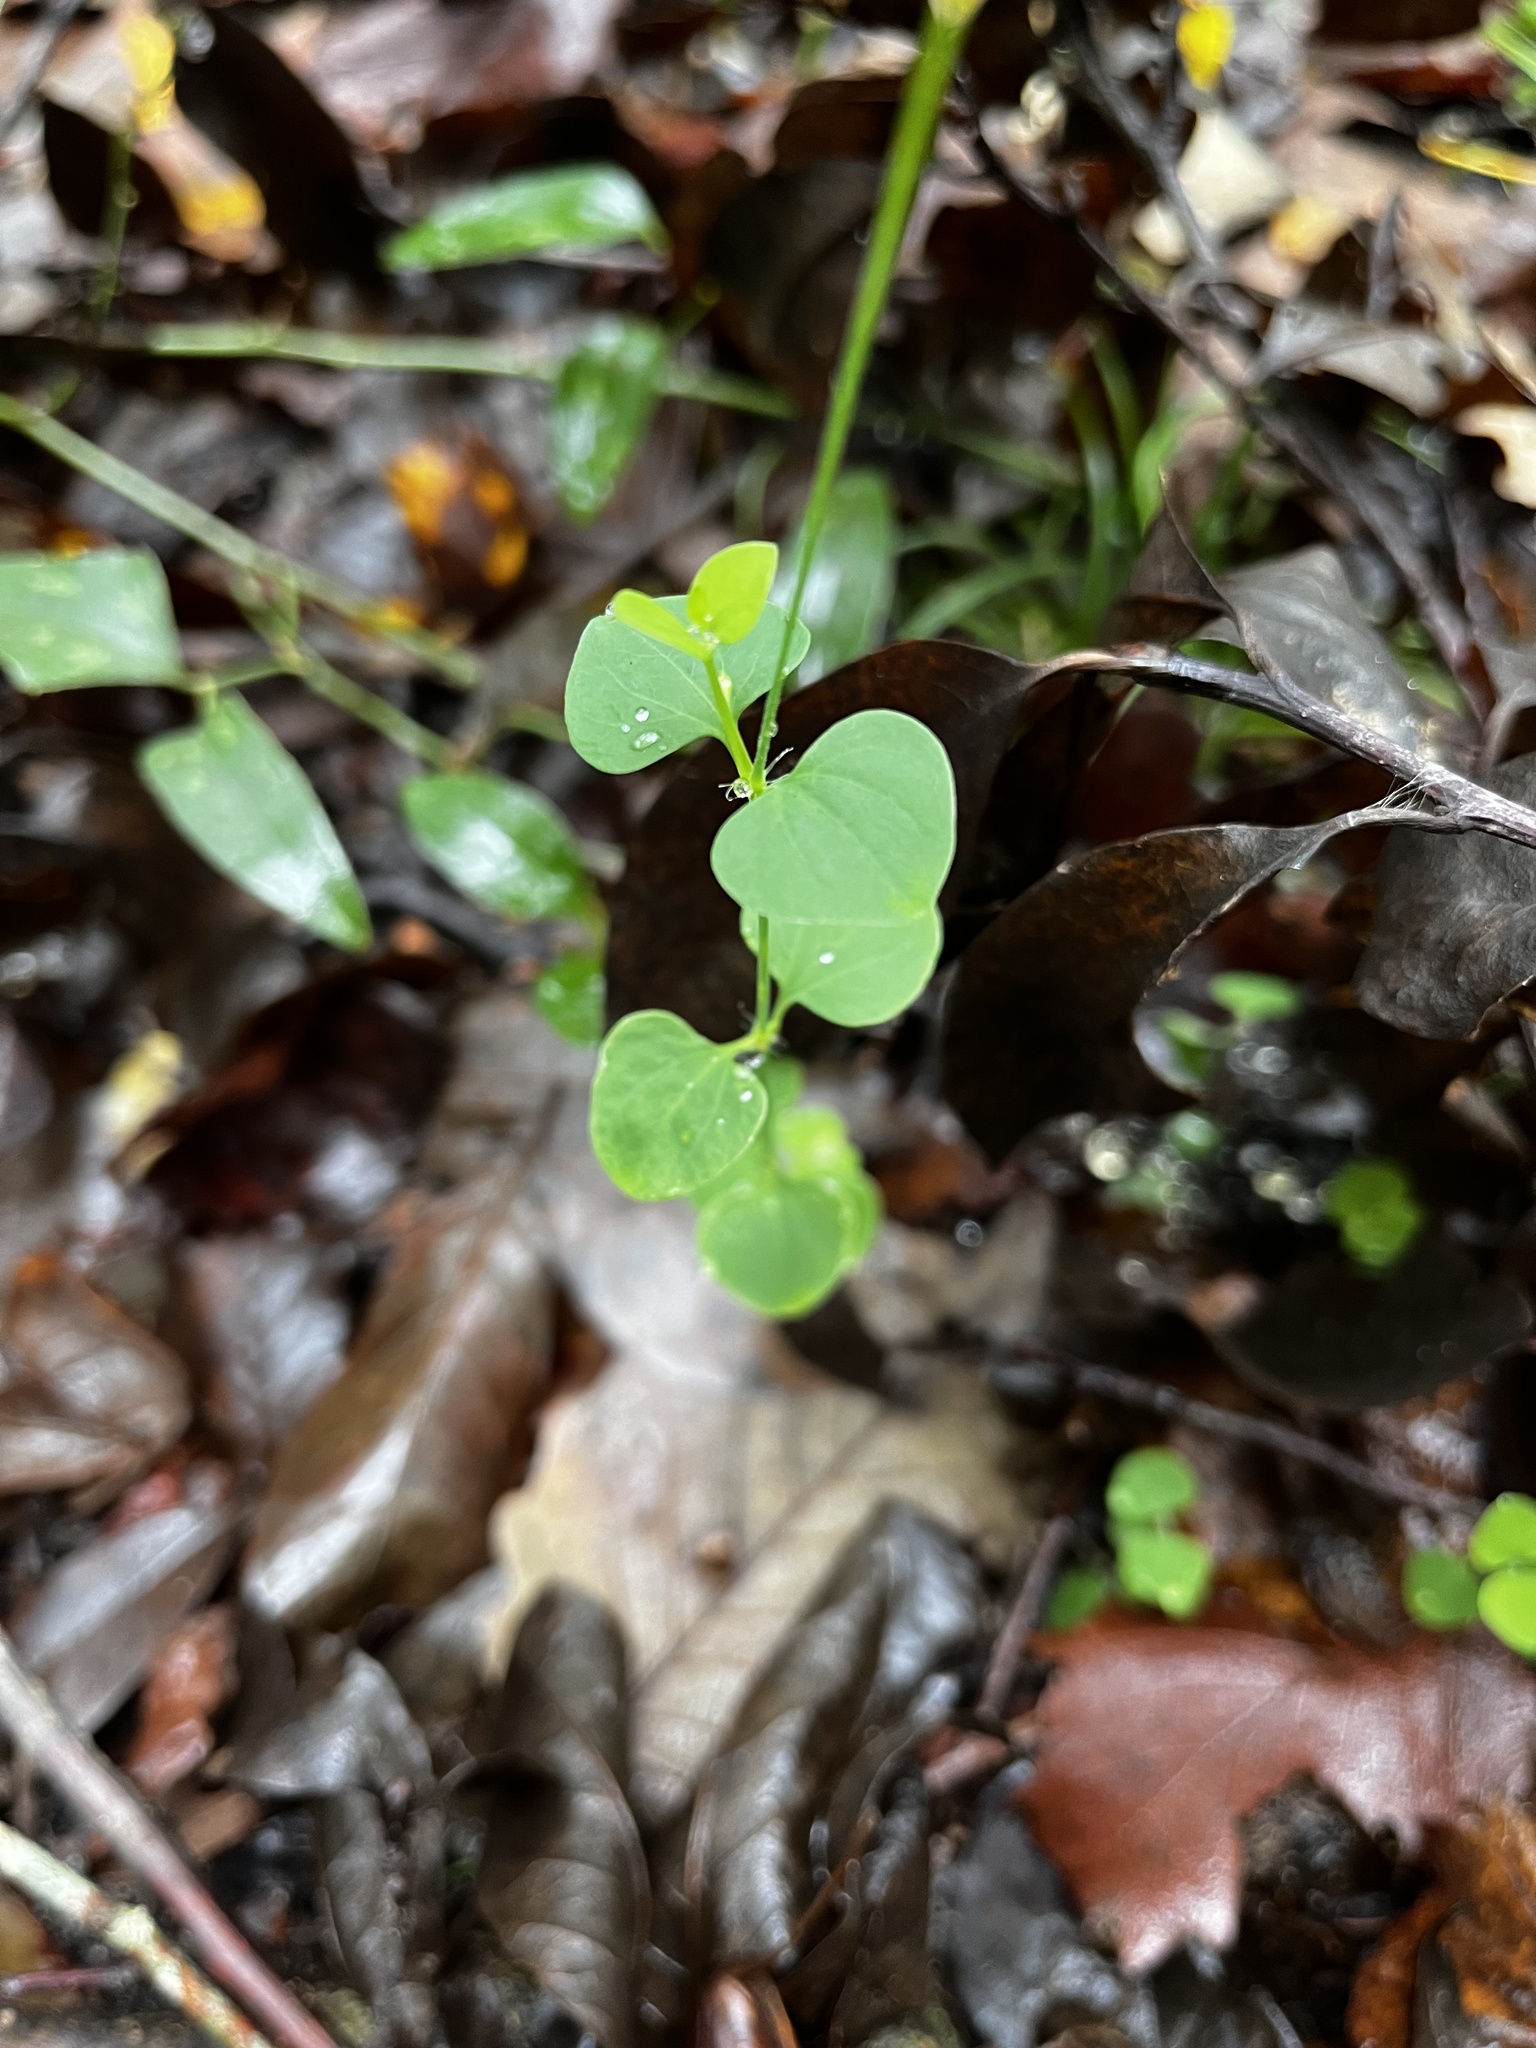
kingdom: Plantae
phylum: Tracheophyta
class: Magnoliopsida
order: Caryophyllales
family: Caryophyllaceae
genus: Drymaria
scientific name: Drymaria cordata
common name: Whitesnow
